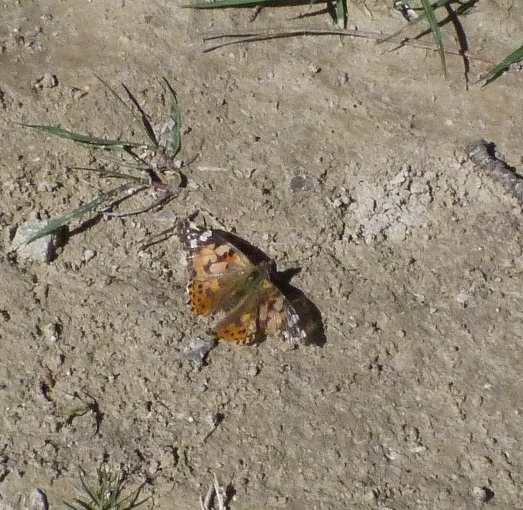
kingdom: Animalia
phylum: Arthropoda
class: Insecta
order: Lepidoptera
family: Nymphalidae
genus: Vanessa
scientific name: Vanessa cardui
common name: Painted lady
